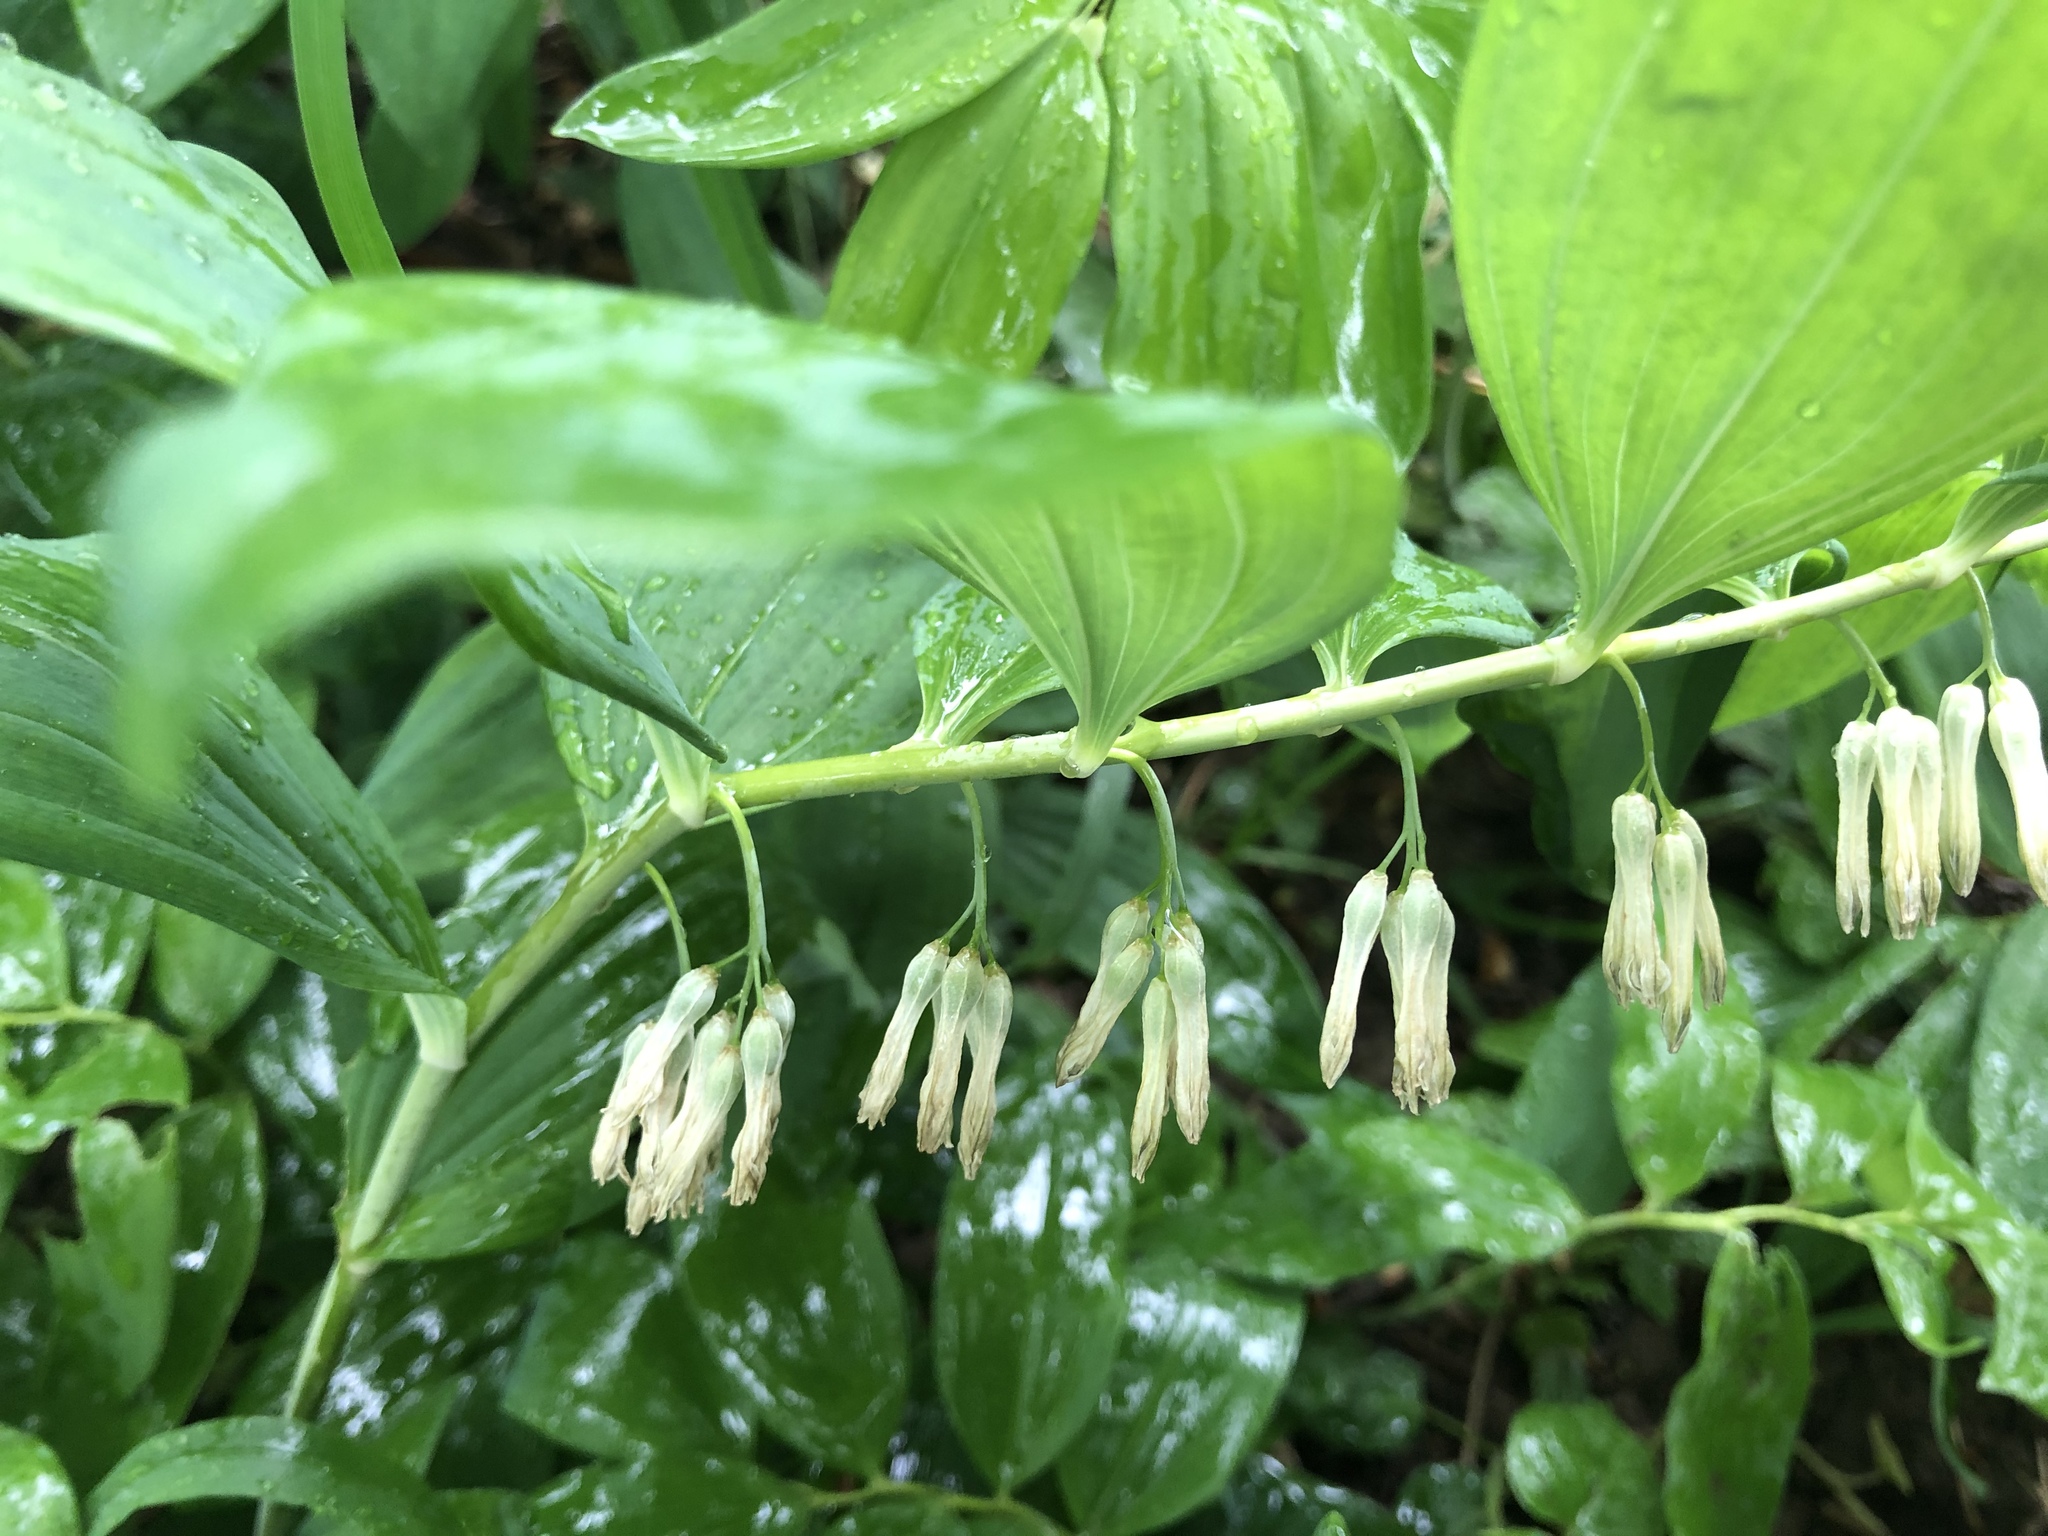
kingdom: Plantae
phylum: Tracheophyta
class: Liliopsida
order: Asparagales
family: Asparagaceae
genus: Polygonatum
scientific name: Polygonatum multiflorum
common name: Solomon's-seal
